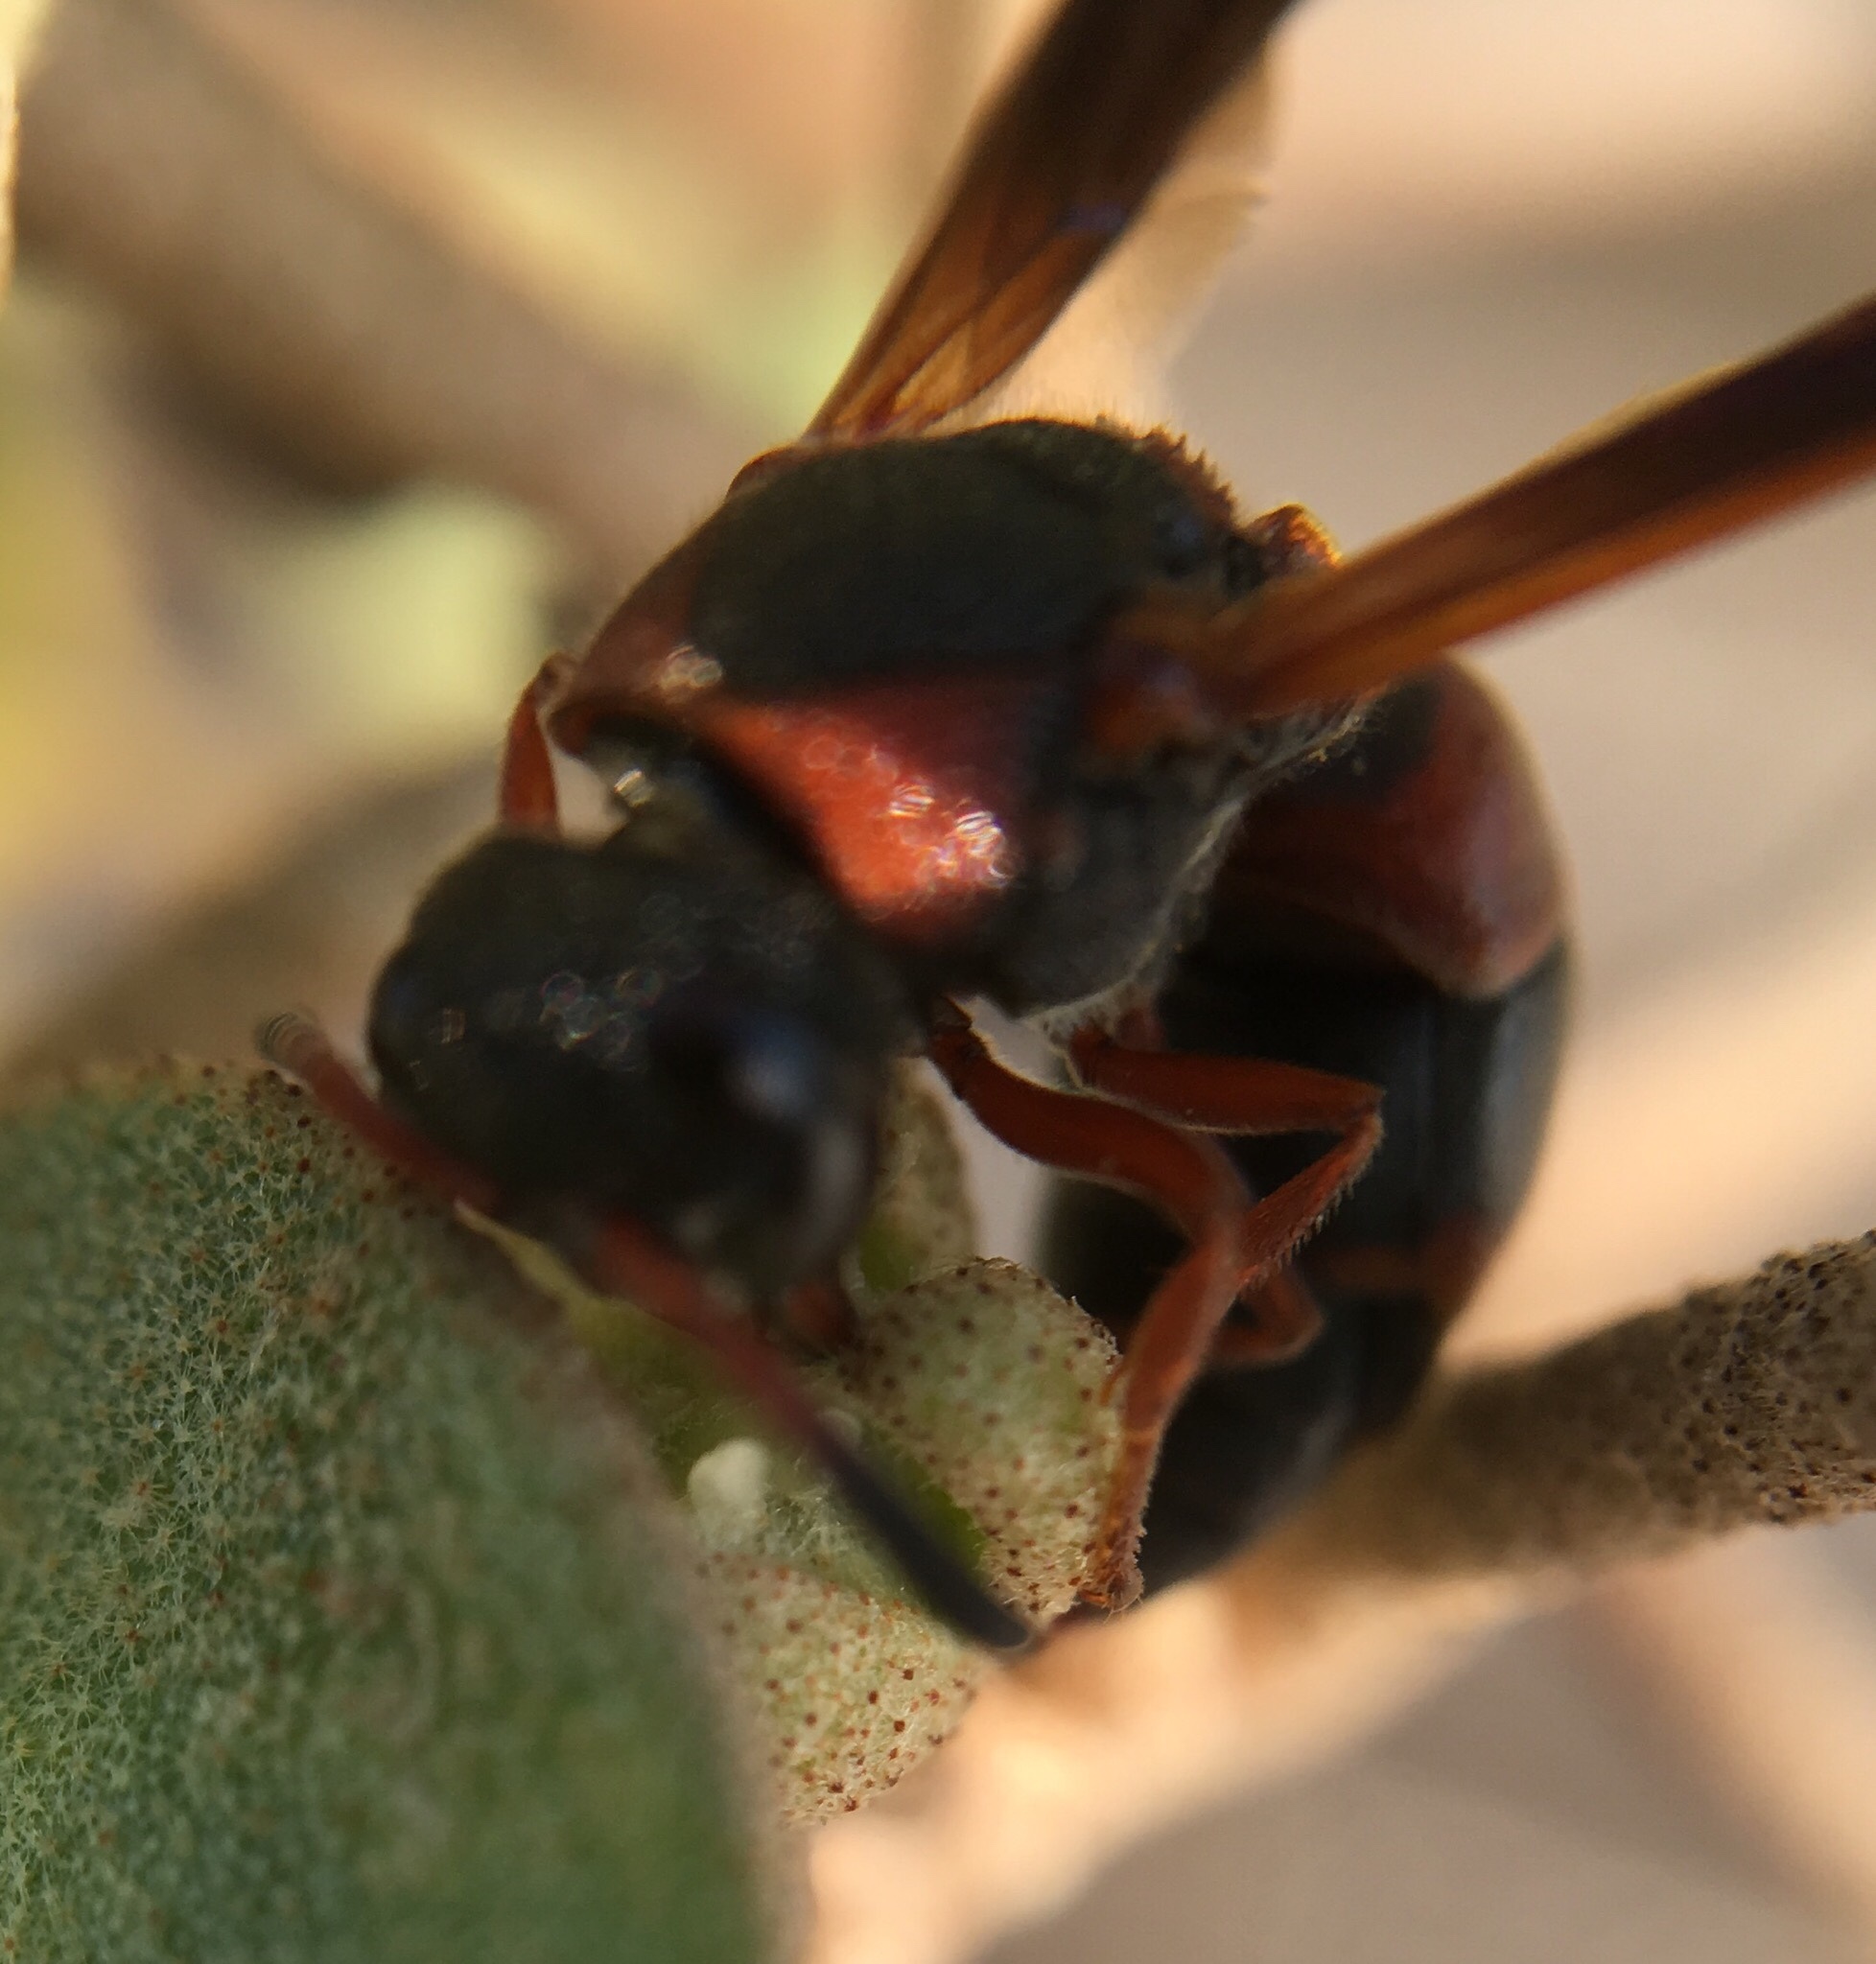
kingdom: Animalia
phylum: Arthropoda
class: Insecta
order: Hymenoptera
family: Eumenidae
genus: Pachodynerus
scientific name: Pachodynerus erynnis
